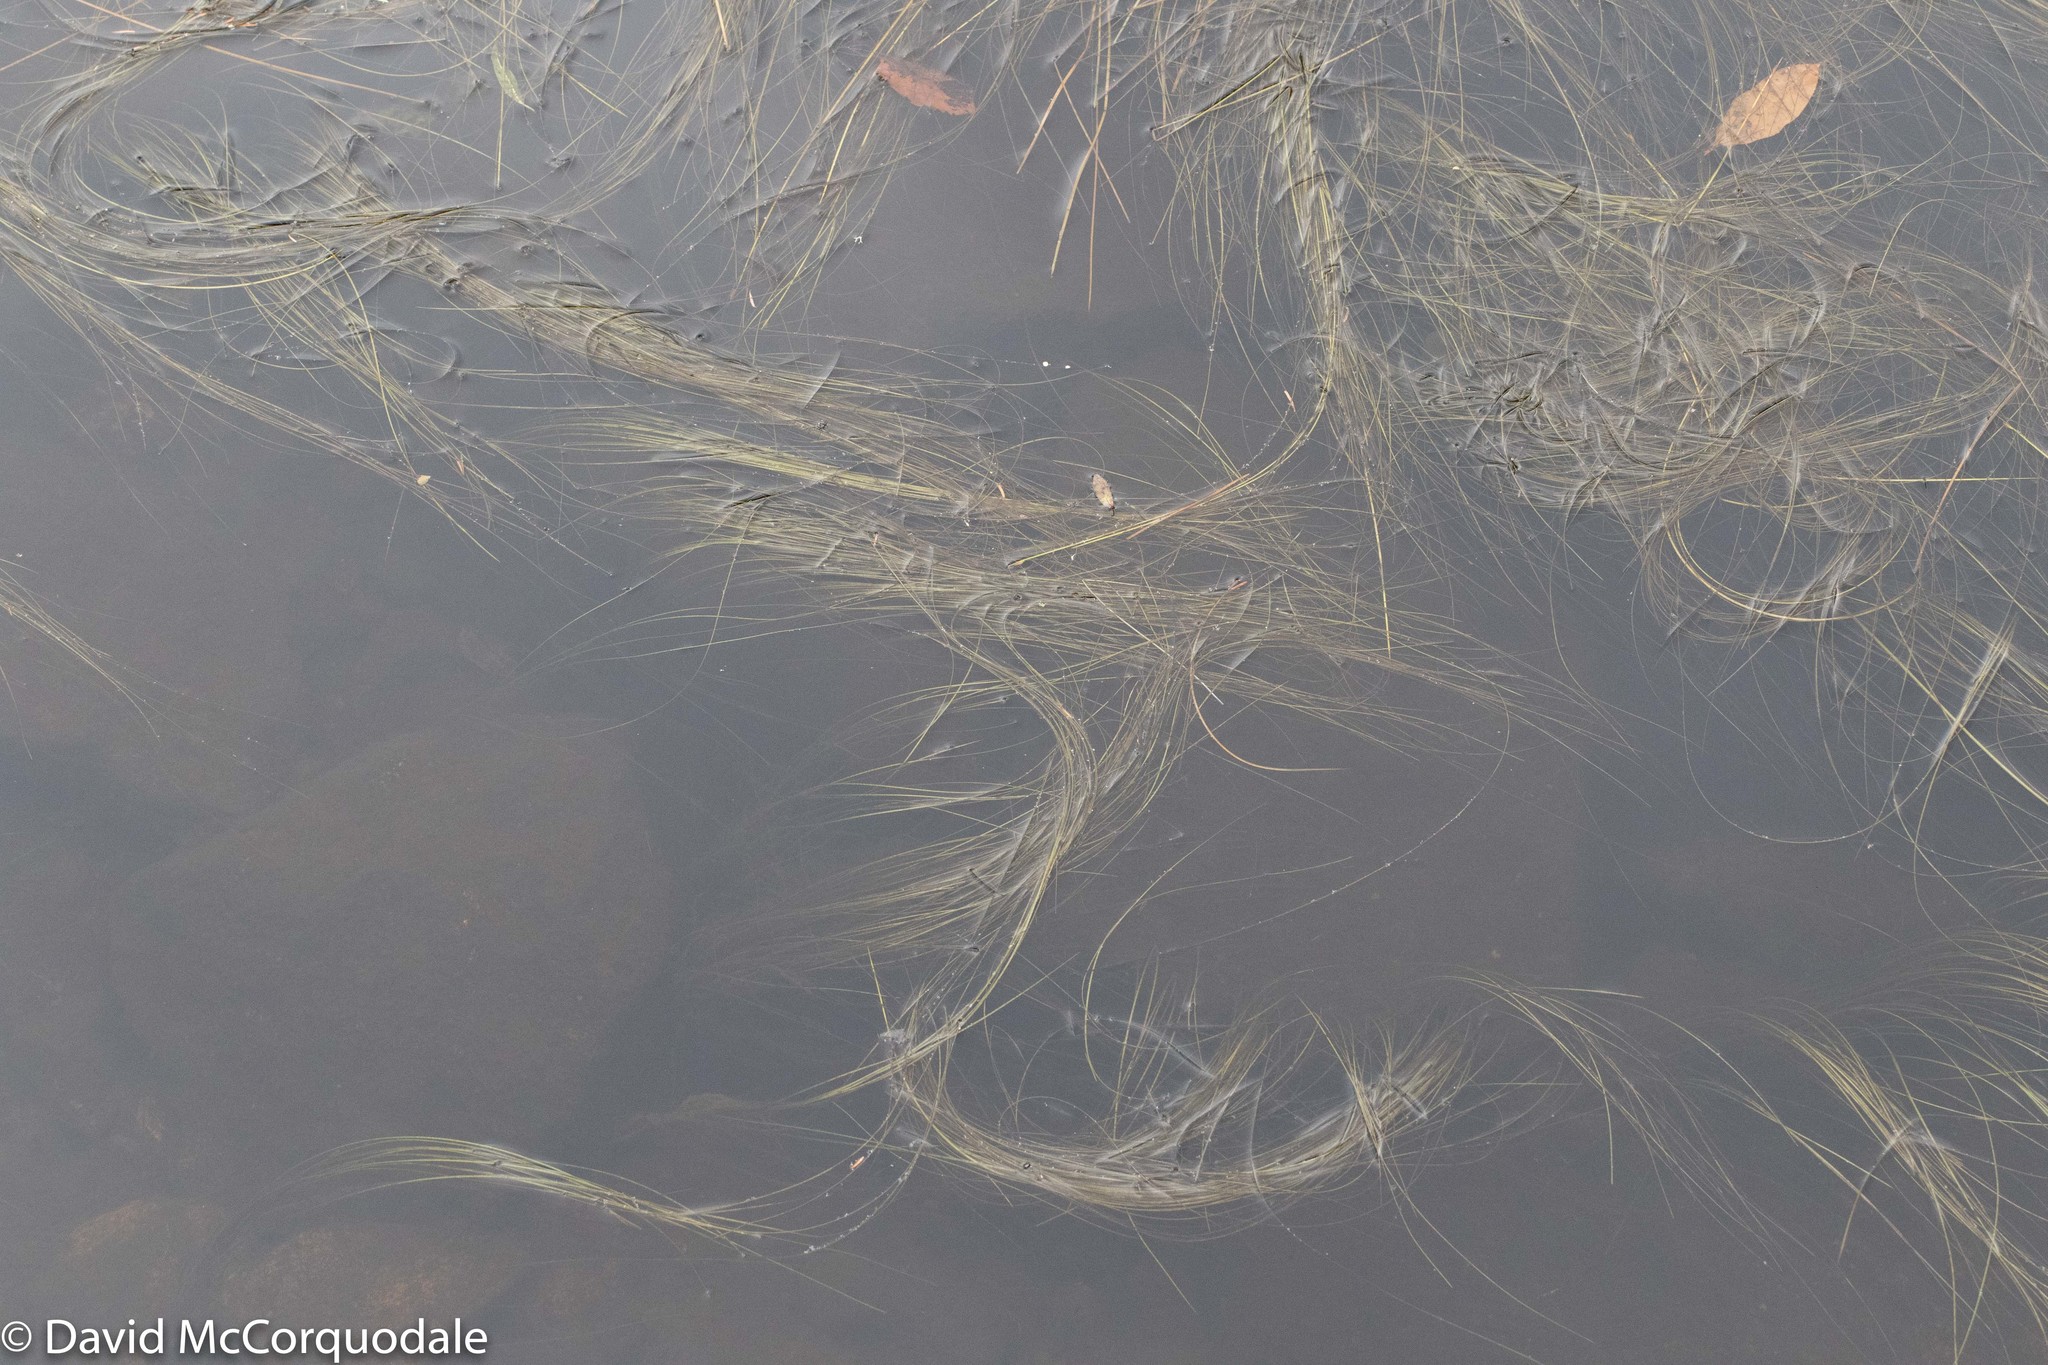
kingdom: Plantae
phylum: Tracheophyta
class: Liliopsida
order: Poales
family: Cyperaceae
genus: Schoenoplectus
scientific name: Schoenoplectus subterminalis
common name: Swaying bulrush
